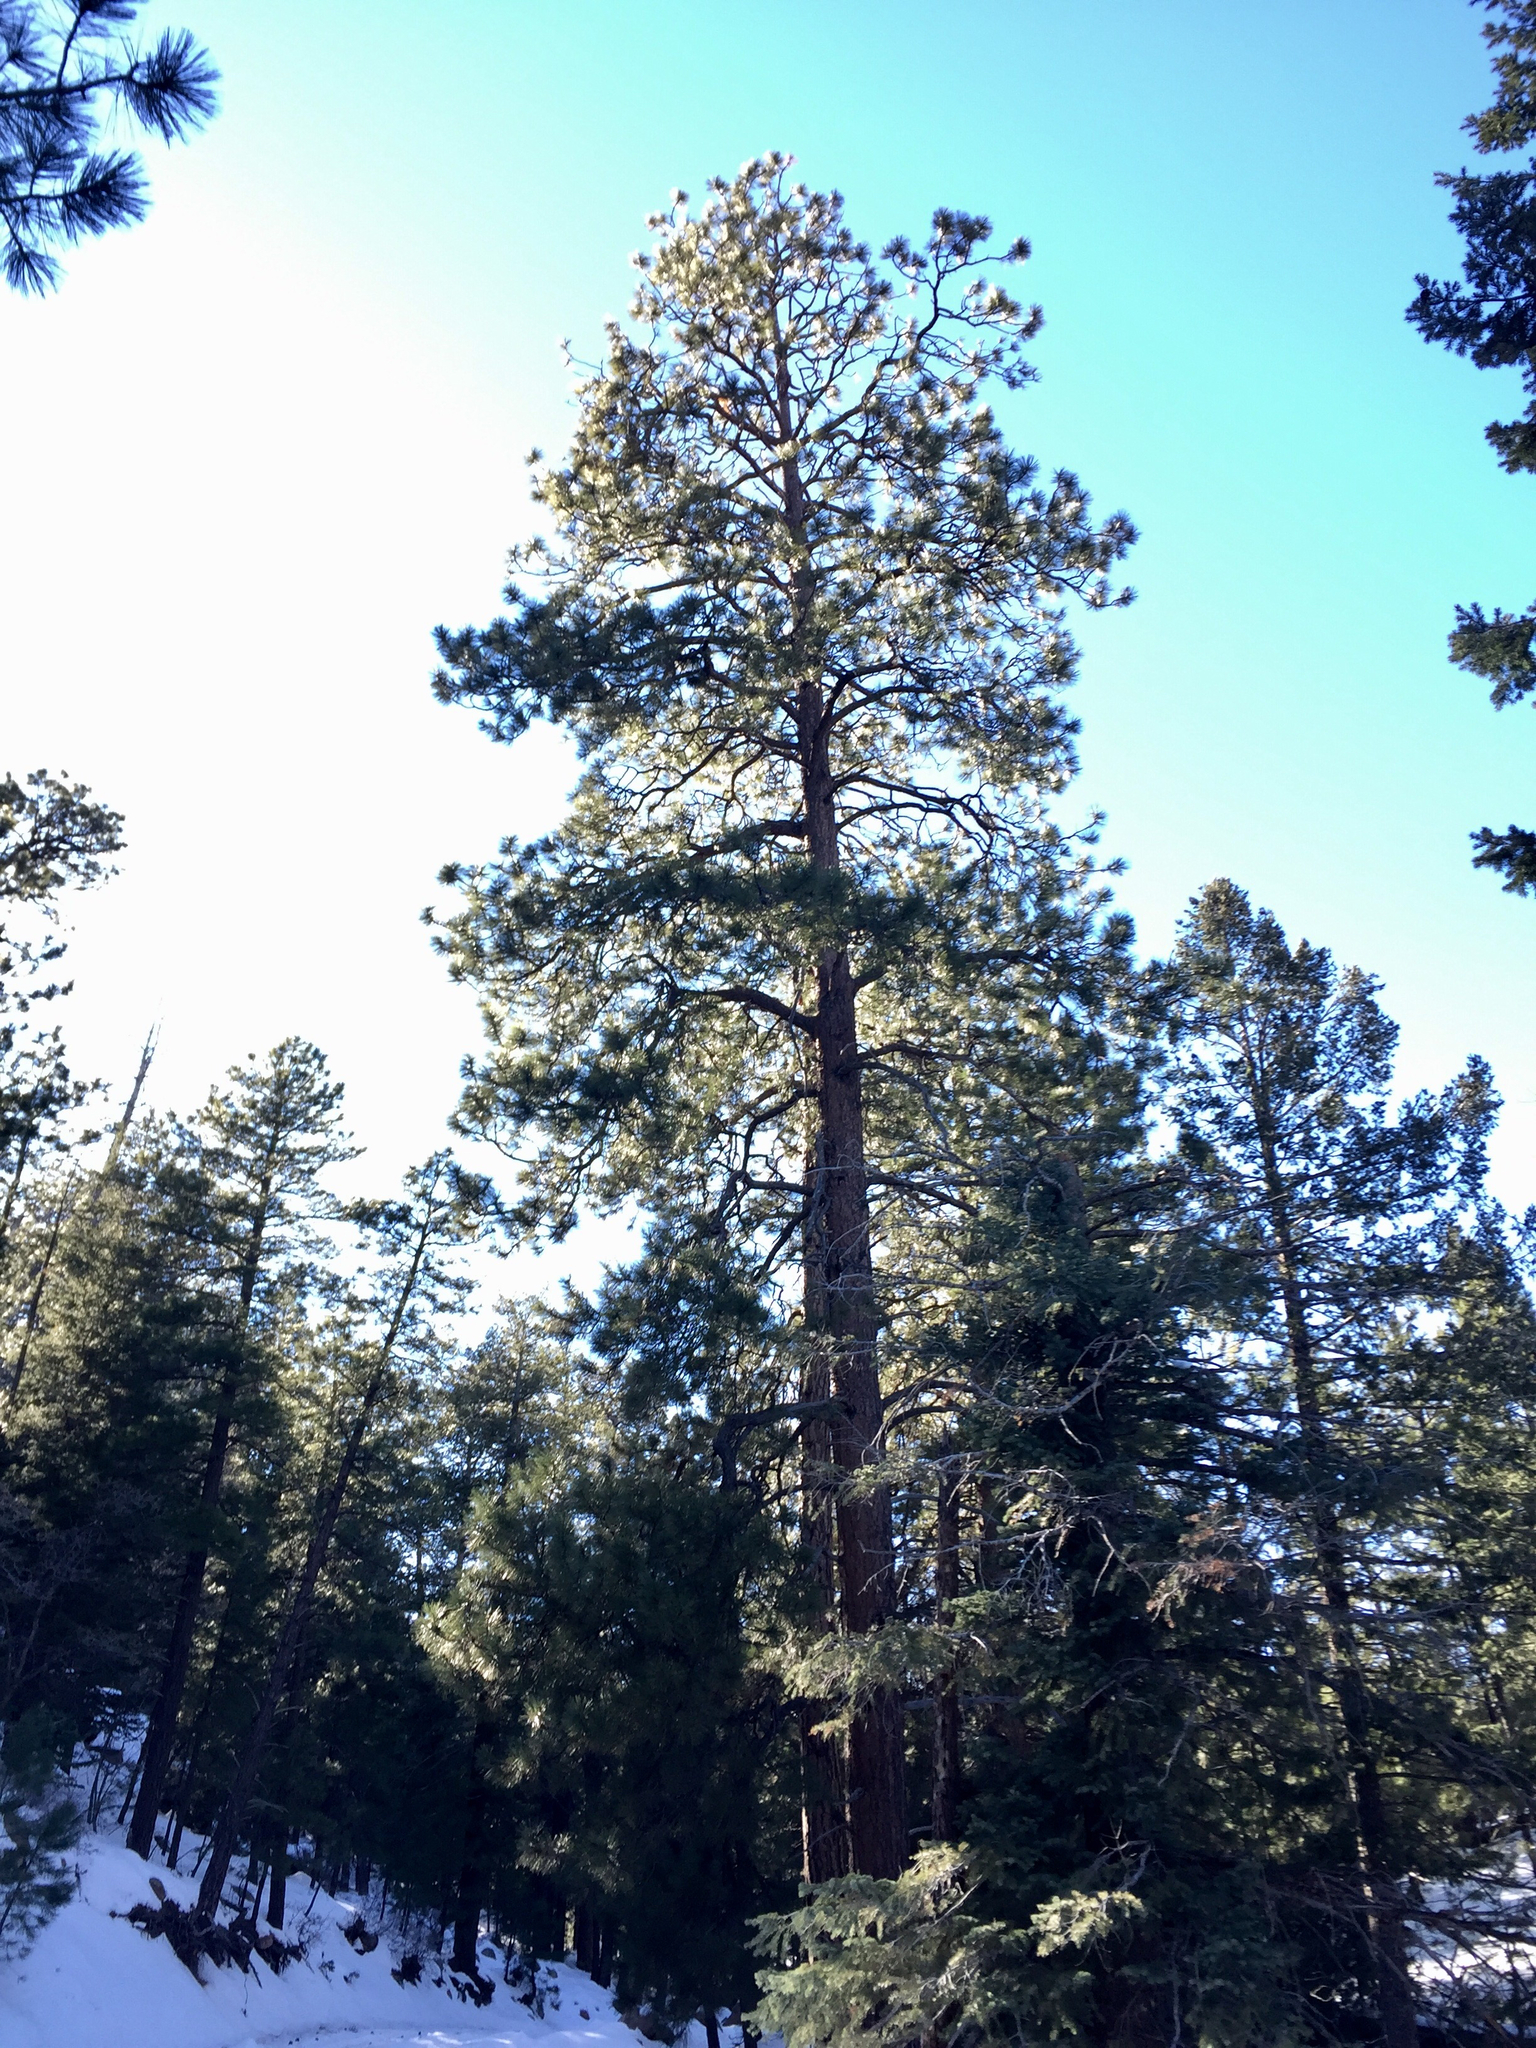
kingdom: Plantae
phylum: Tracheophyta
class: Pinopsida
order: Pinales
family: Pinaceae
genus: Pinus
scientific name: Pinus ponderosa
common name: Western yellow-pine
